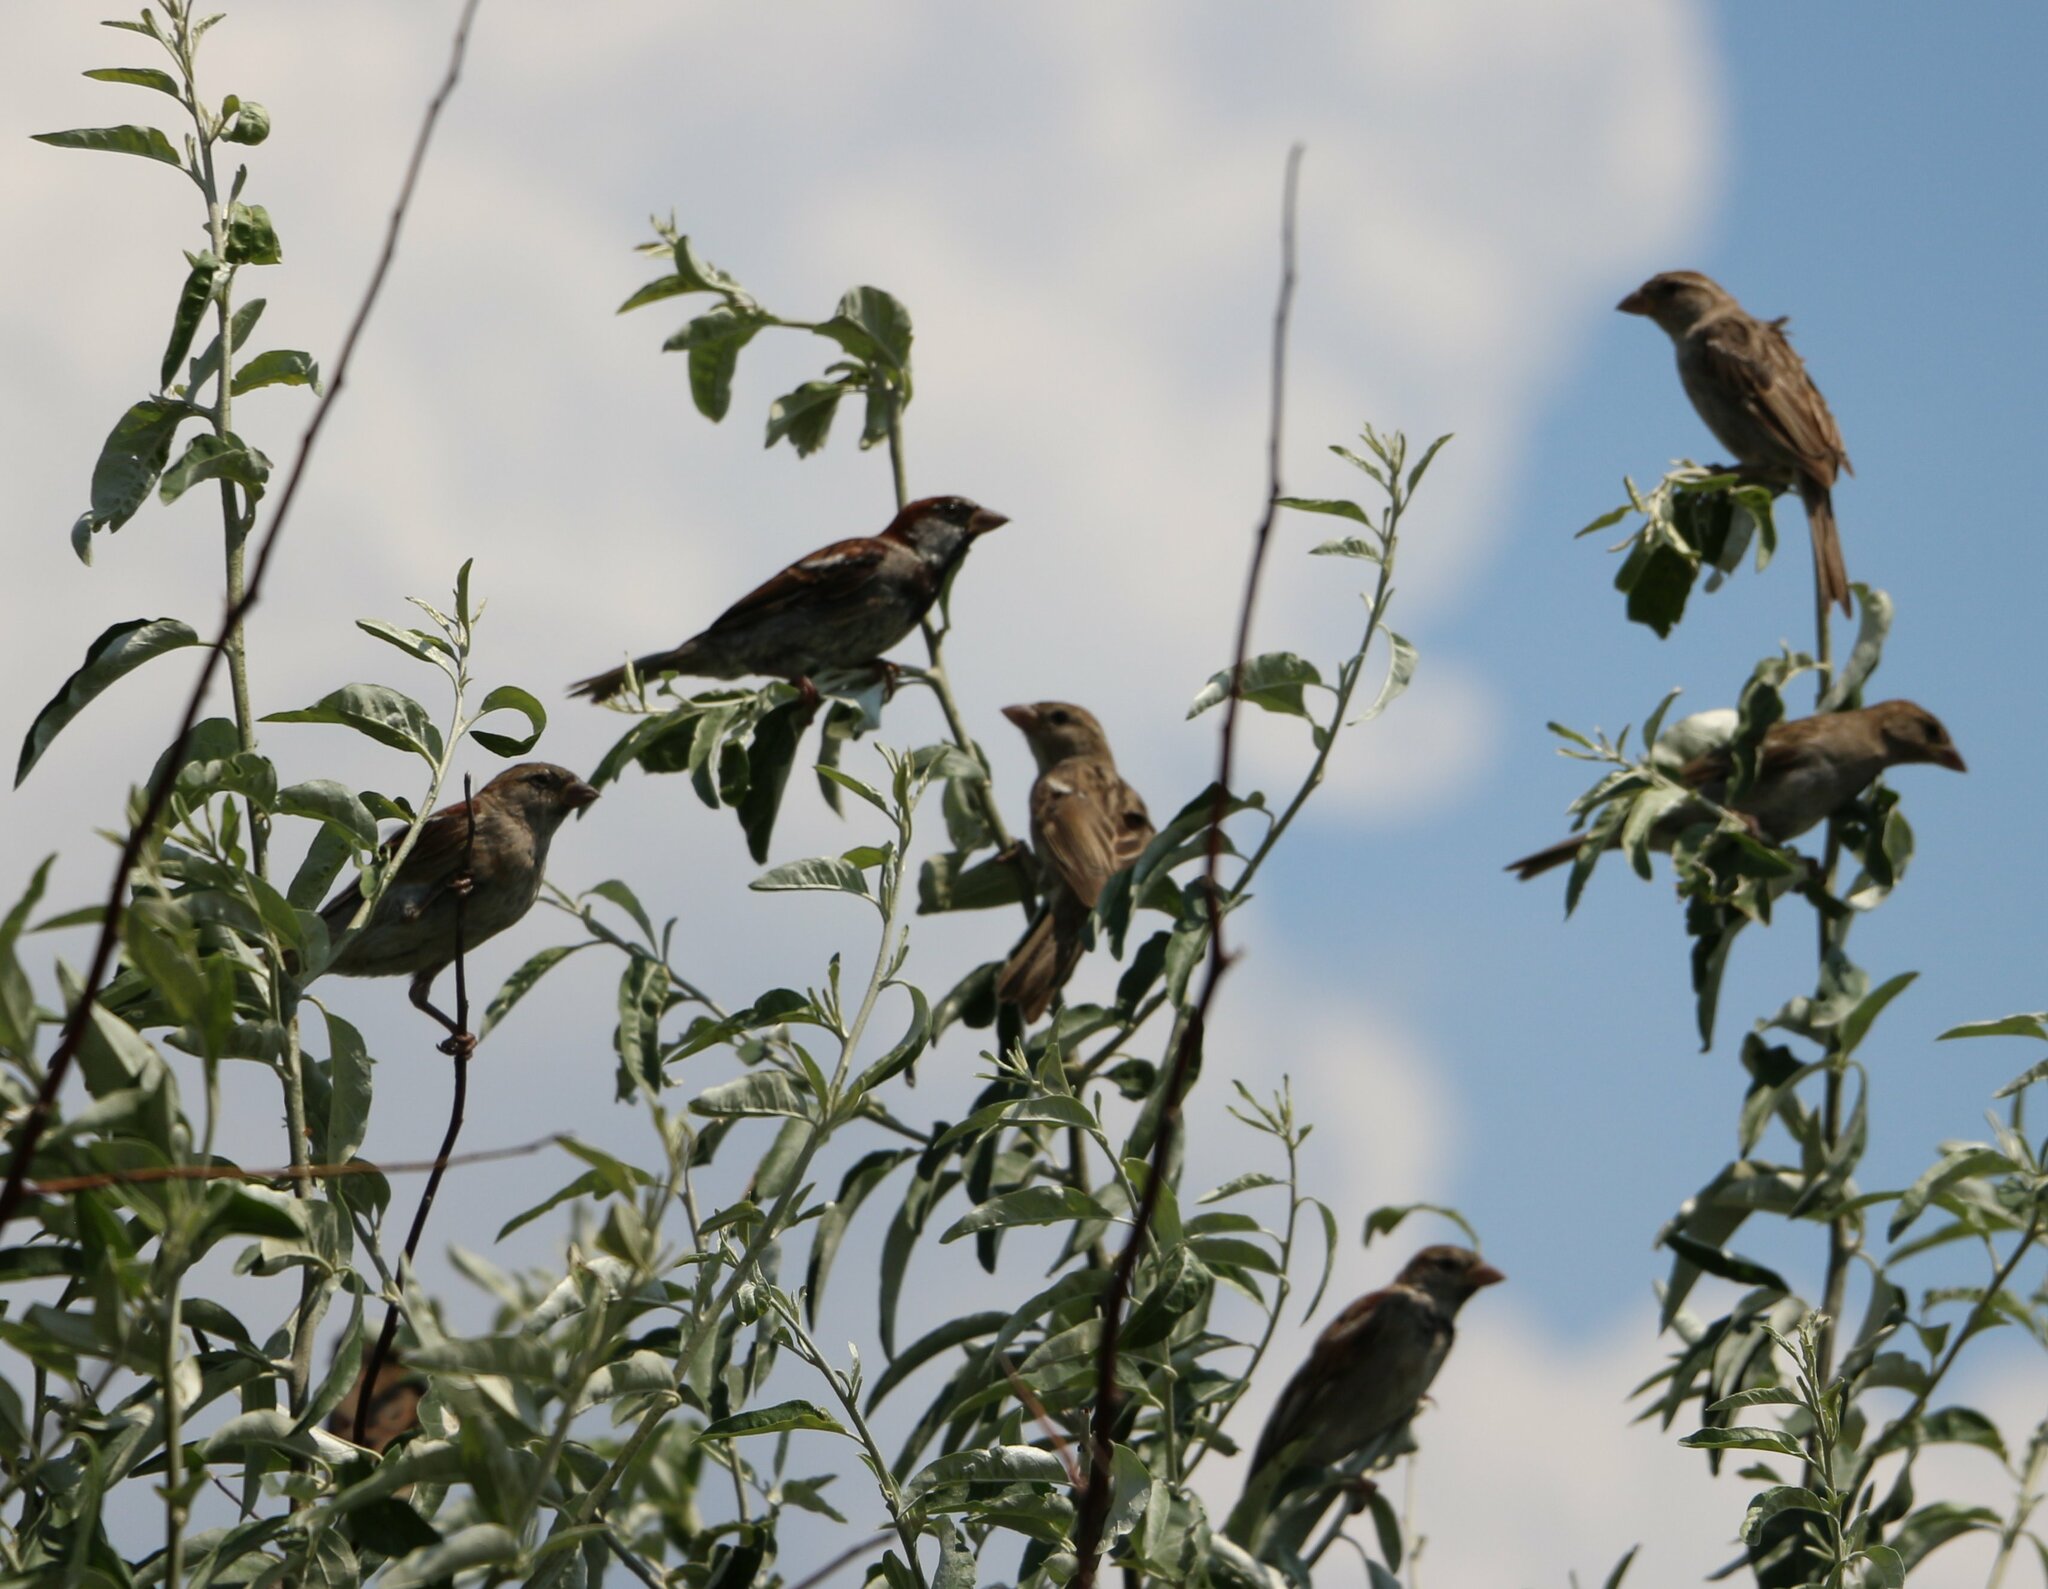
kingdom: Animalia
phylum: Chordata
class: Aves
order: Passeriformes
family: Passeridae
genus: Passer
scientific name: Passer domesticus
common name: House sparrow
